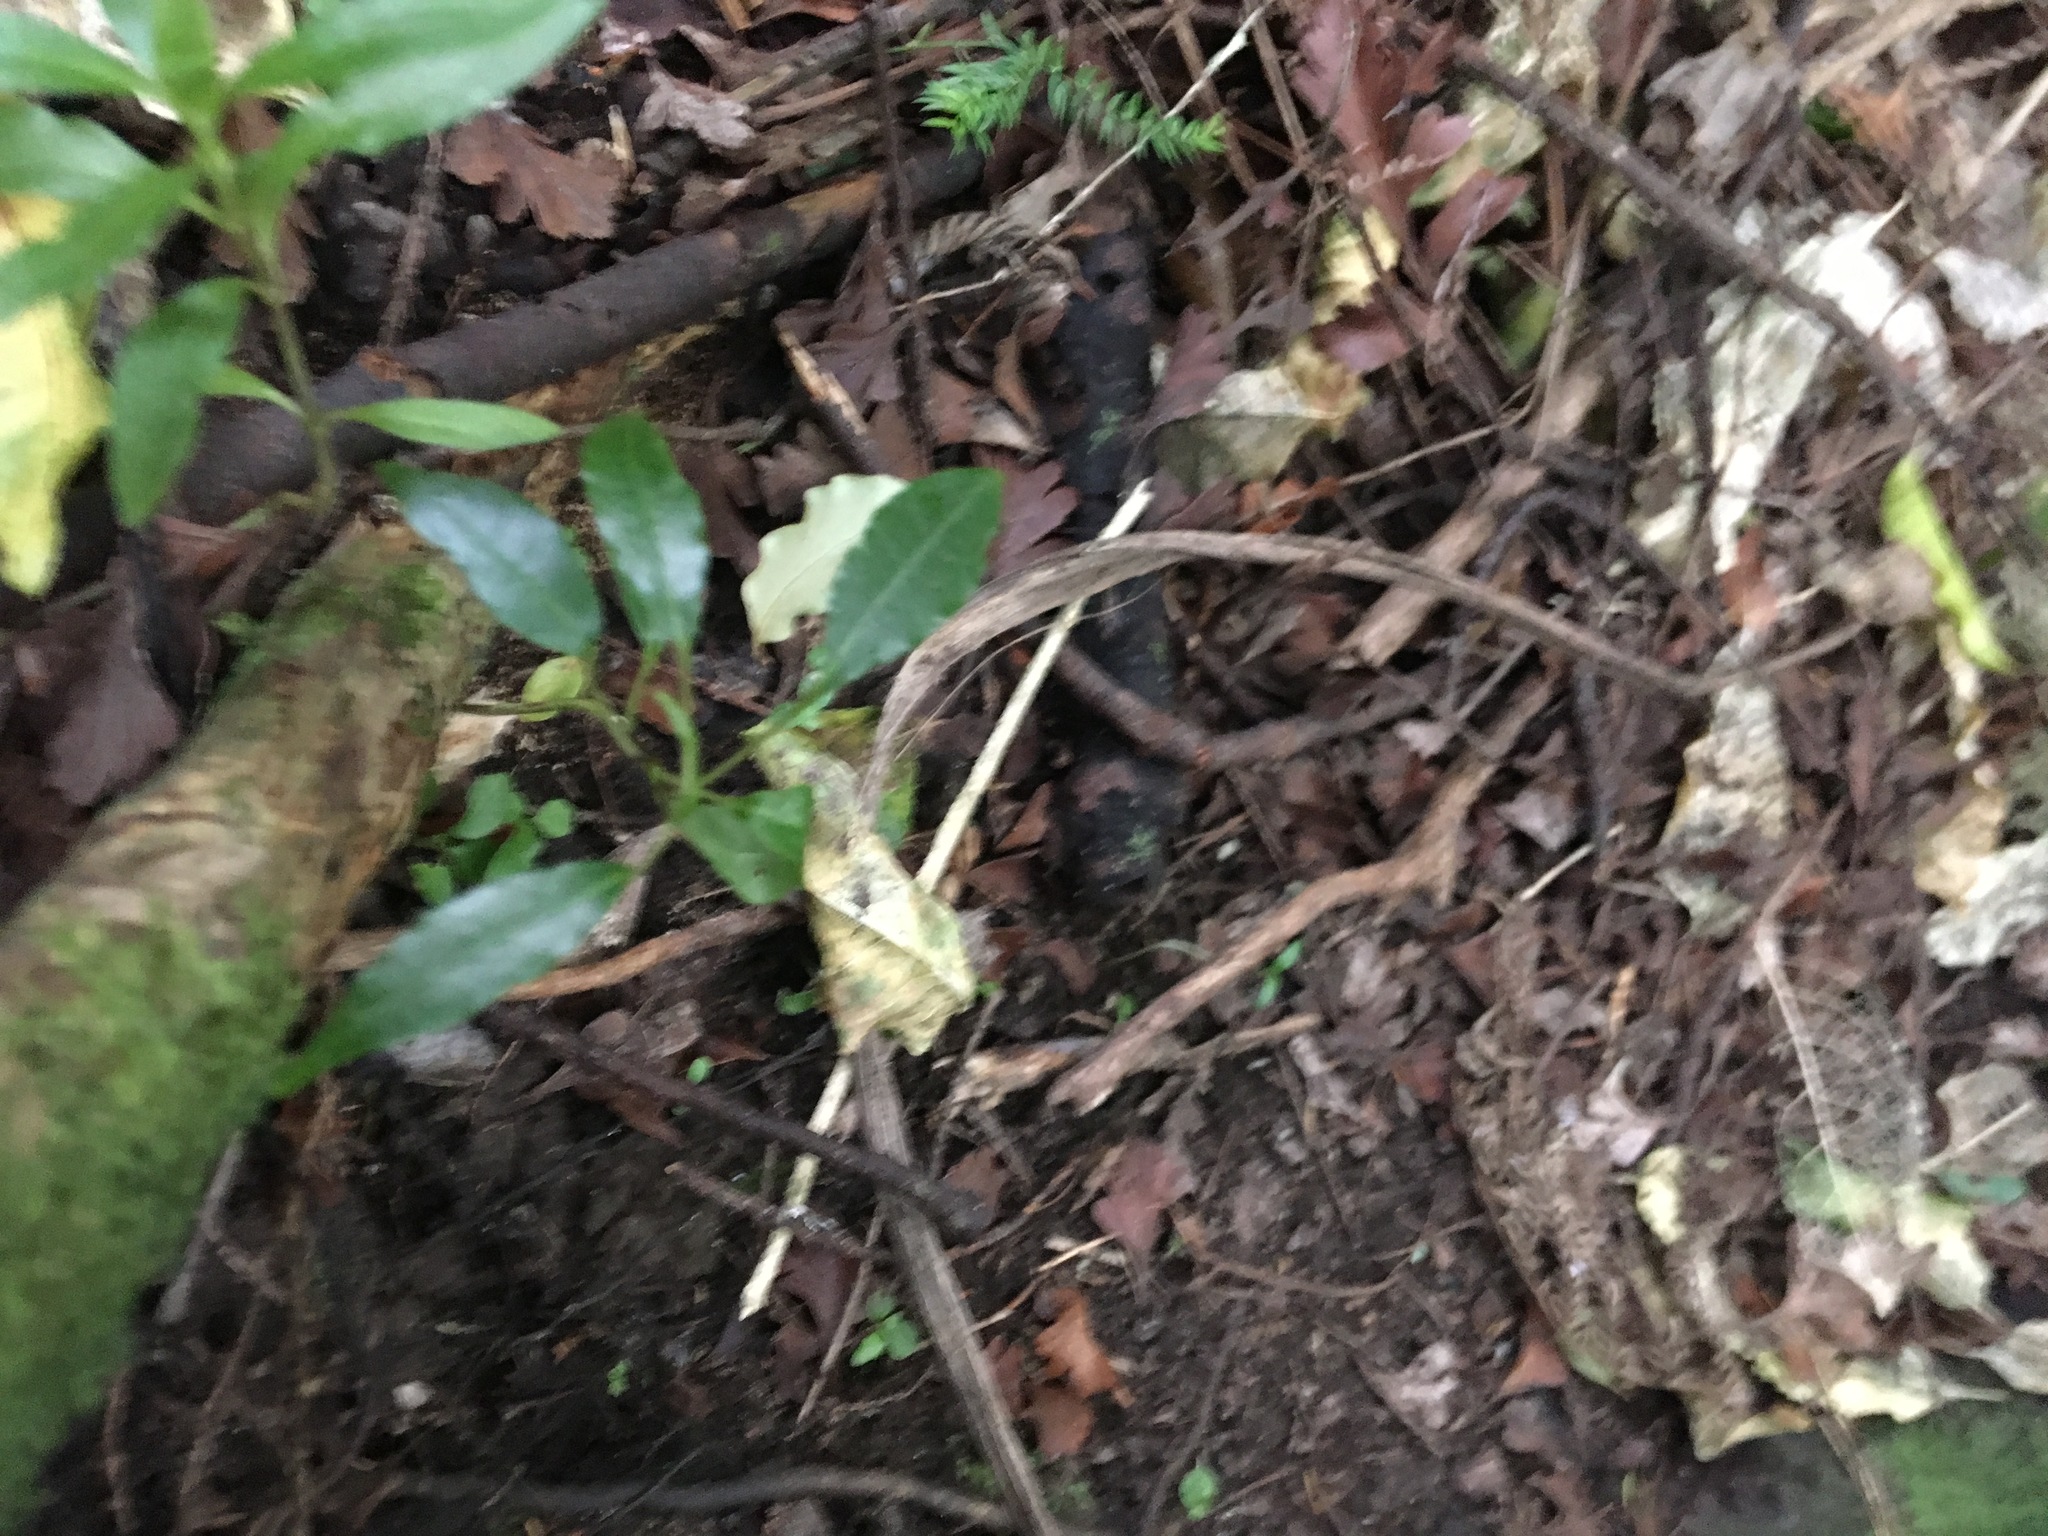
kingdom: Plantae
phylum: Tracheophyta
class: Magnoliopsida
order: Malpighiales
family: Passifloraceae
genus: Passiflora
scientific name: Passiflora tetrandra
